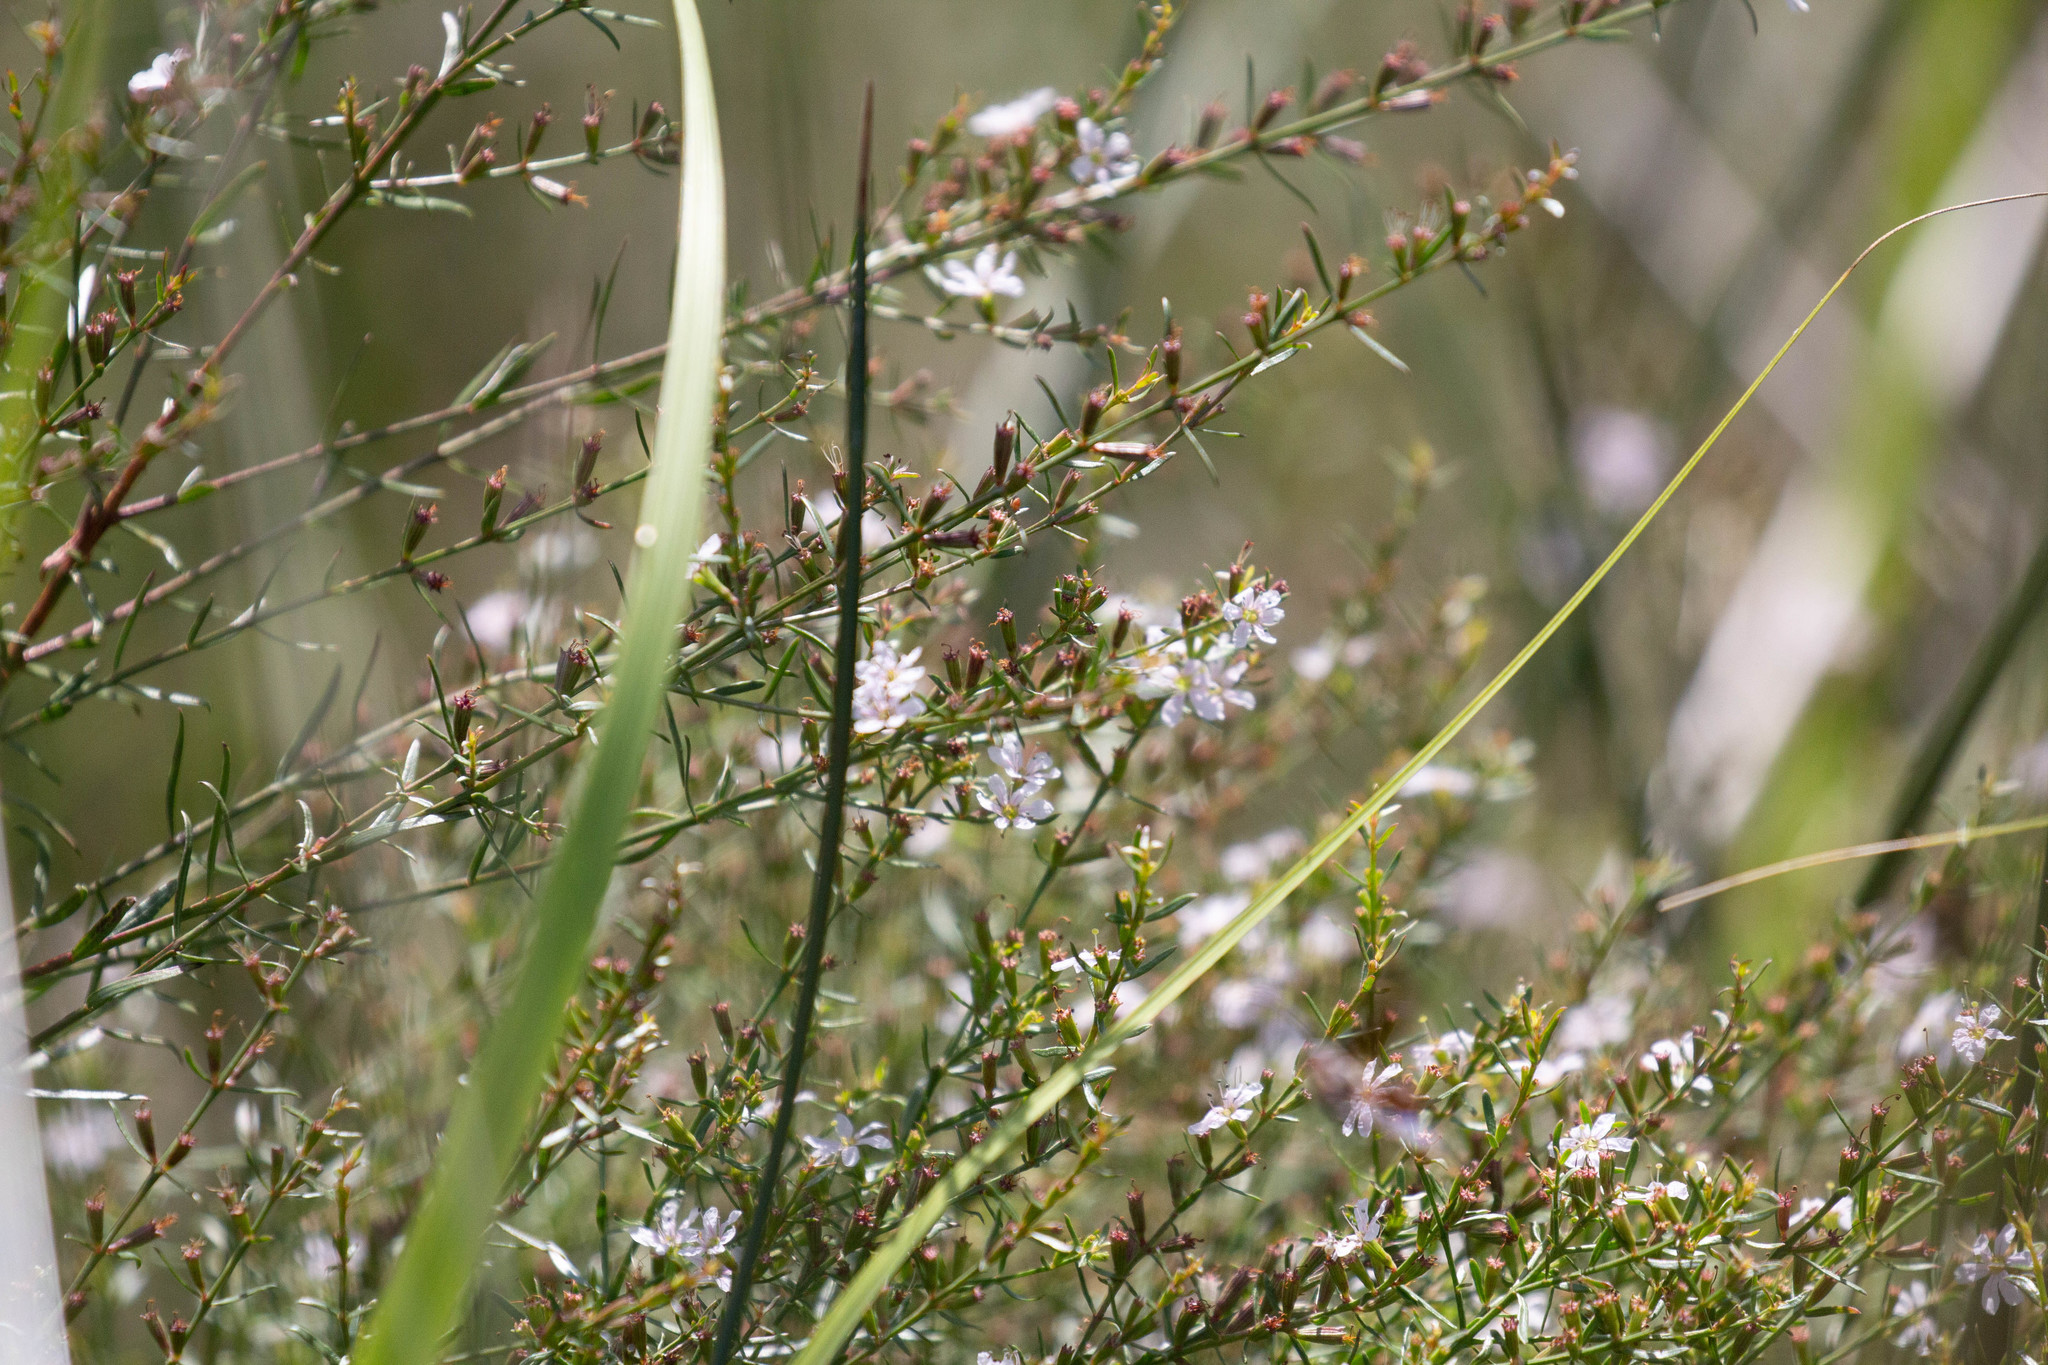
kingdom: Plantae
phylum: Tracheophyta
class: Magnoliopsida
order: Myrtales
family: Lythraceae
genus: Lythrum
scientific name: Lythrum alatum
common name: Winged loosestrife
